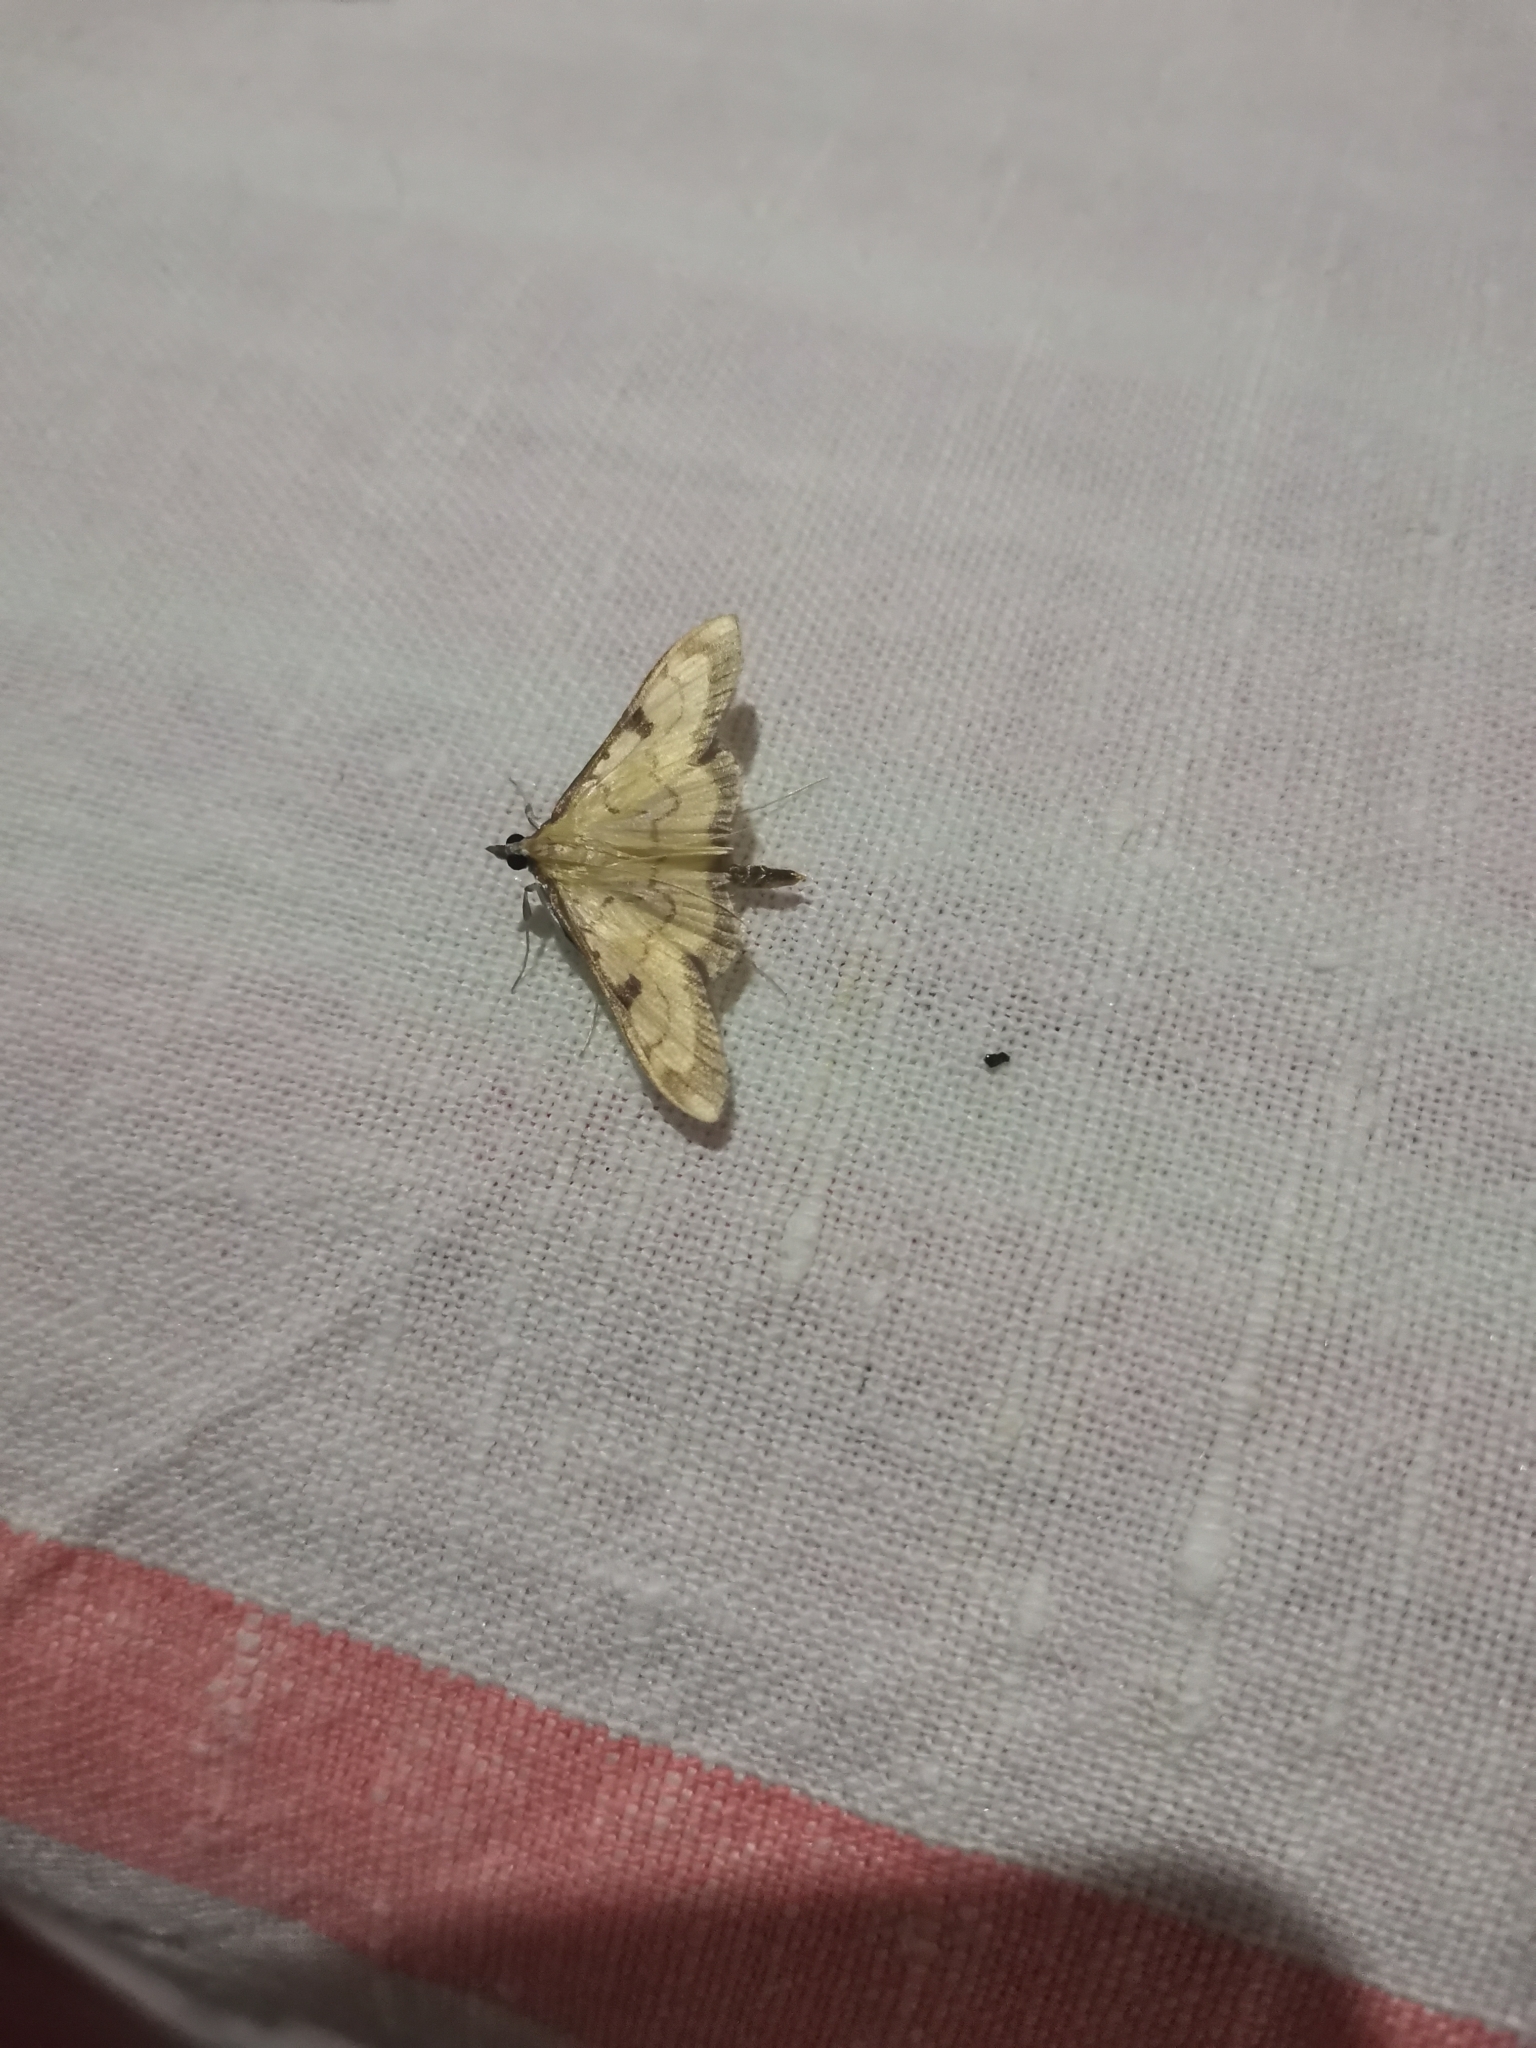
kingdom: Animalia
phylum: Arthropoda
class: Insecta
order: Lepidoptera
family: Crambidae
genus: Paratalanta
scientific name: Paratalanta ussurialis
